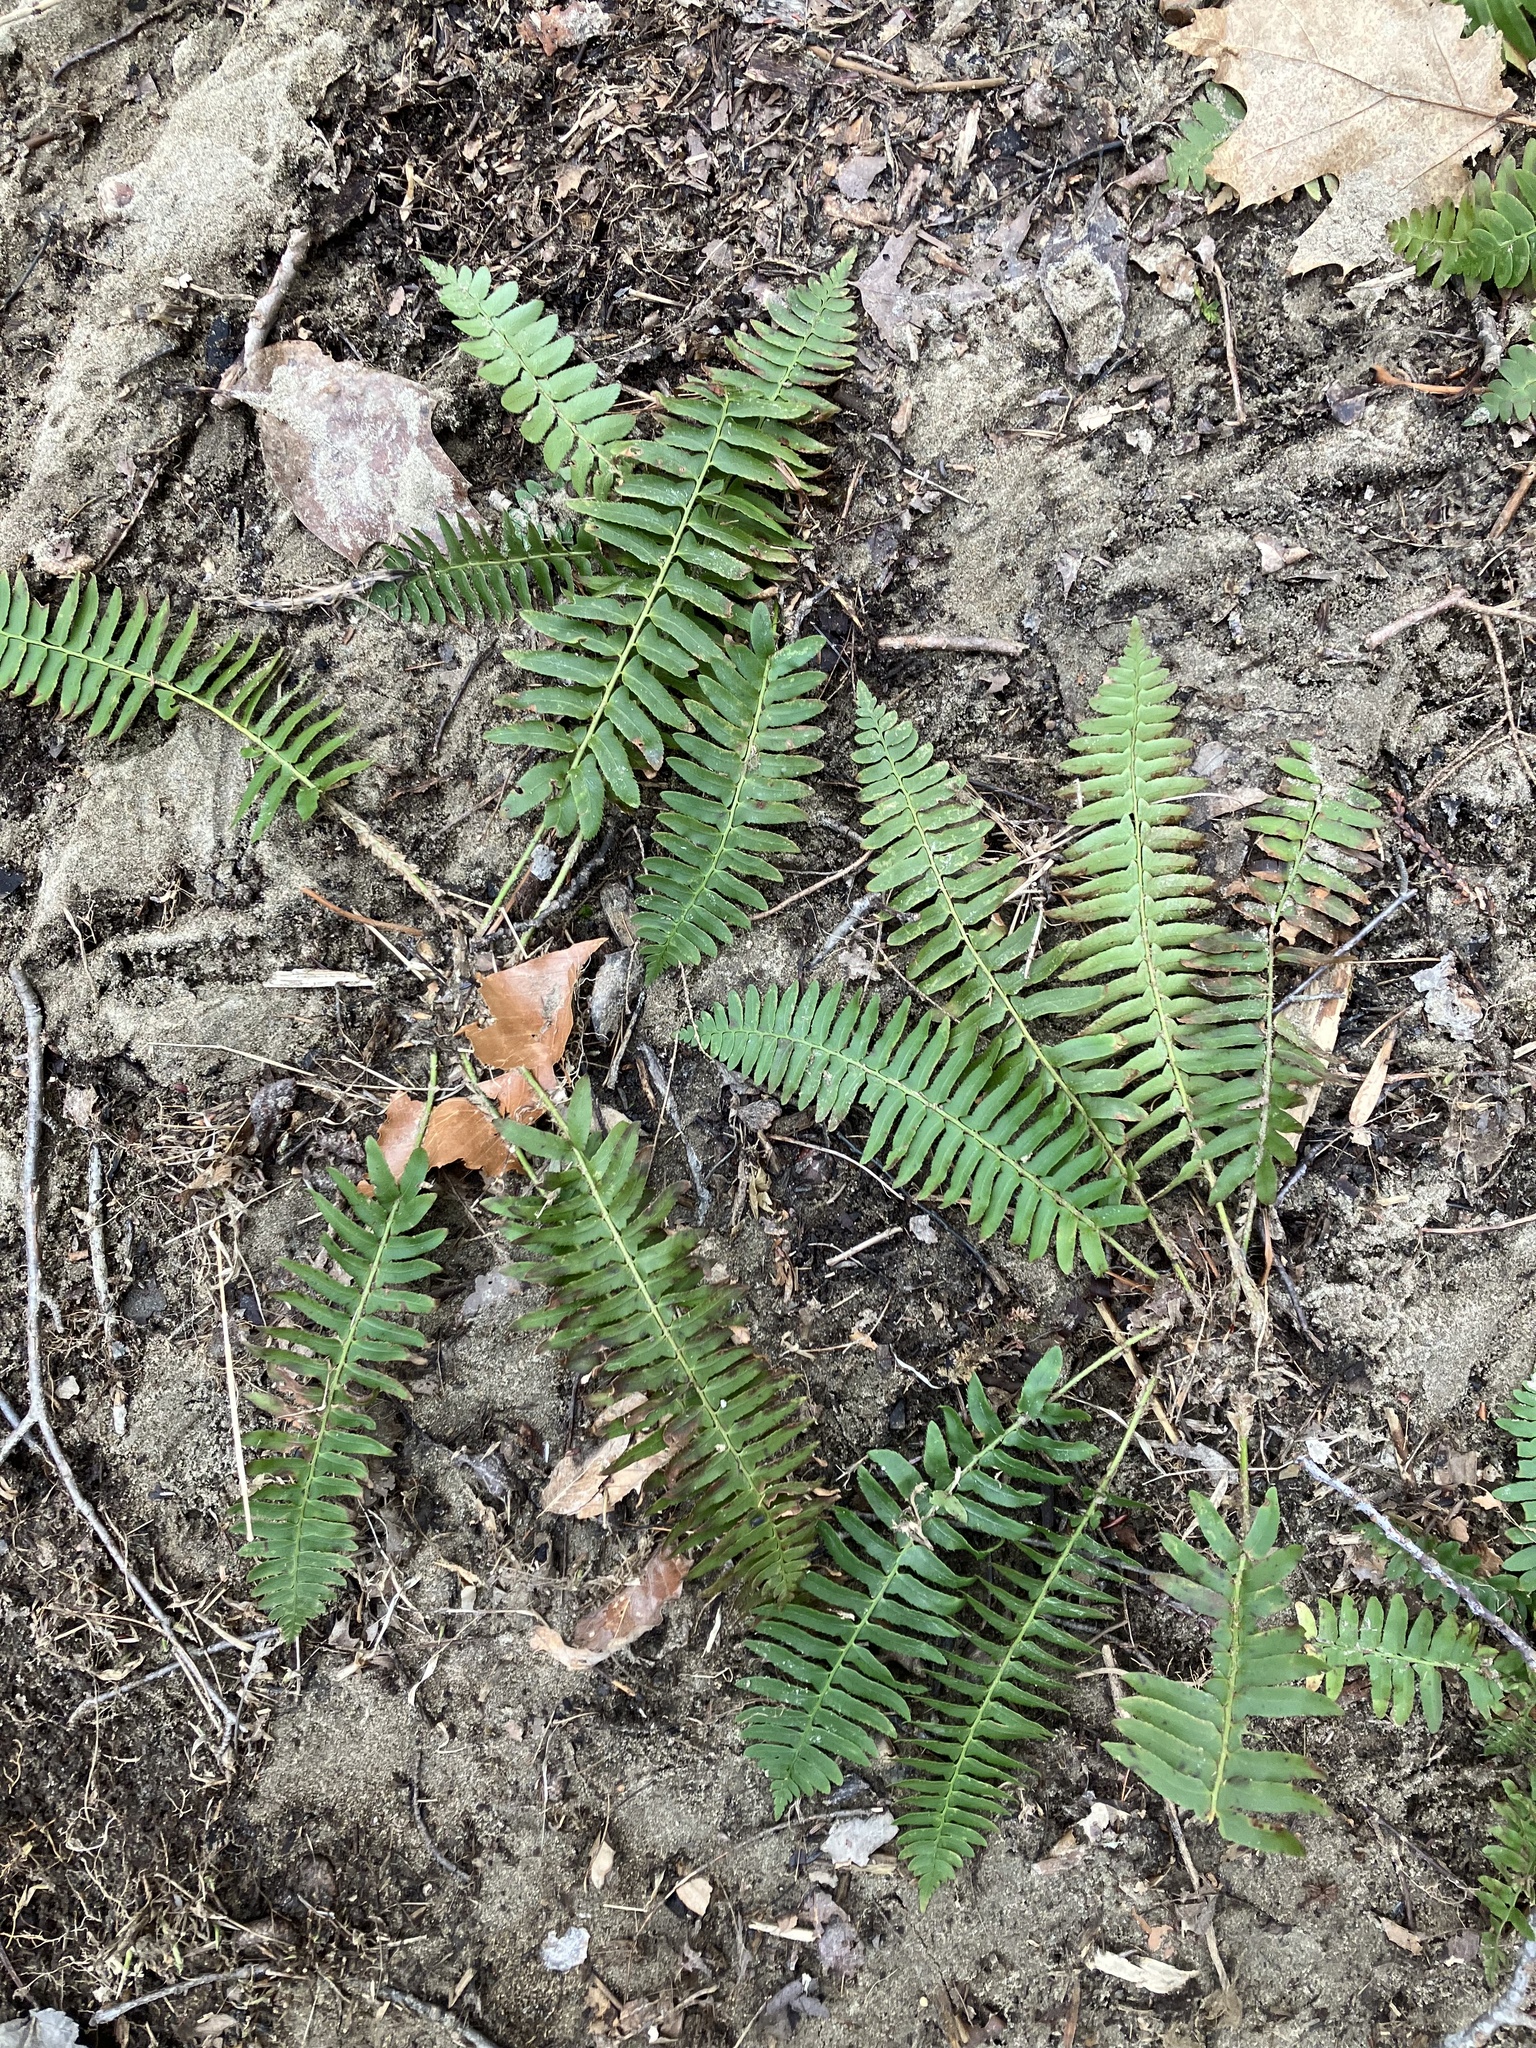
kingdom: Plantae
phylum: Tracheophyta
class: Polypodiopsida
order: Polypodiales
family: Dryopteridaceae
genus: Polystichum
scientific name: Polystichum acrostichoides
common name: Christmas fern
